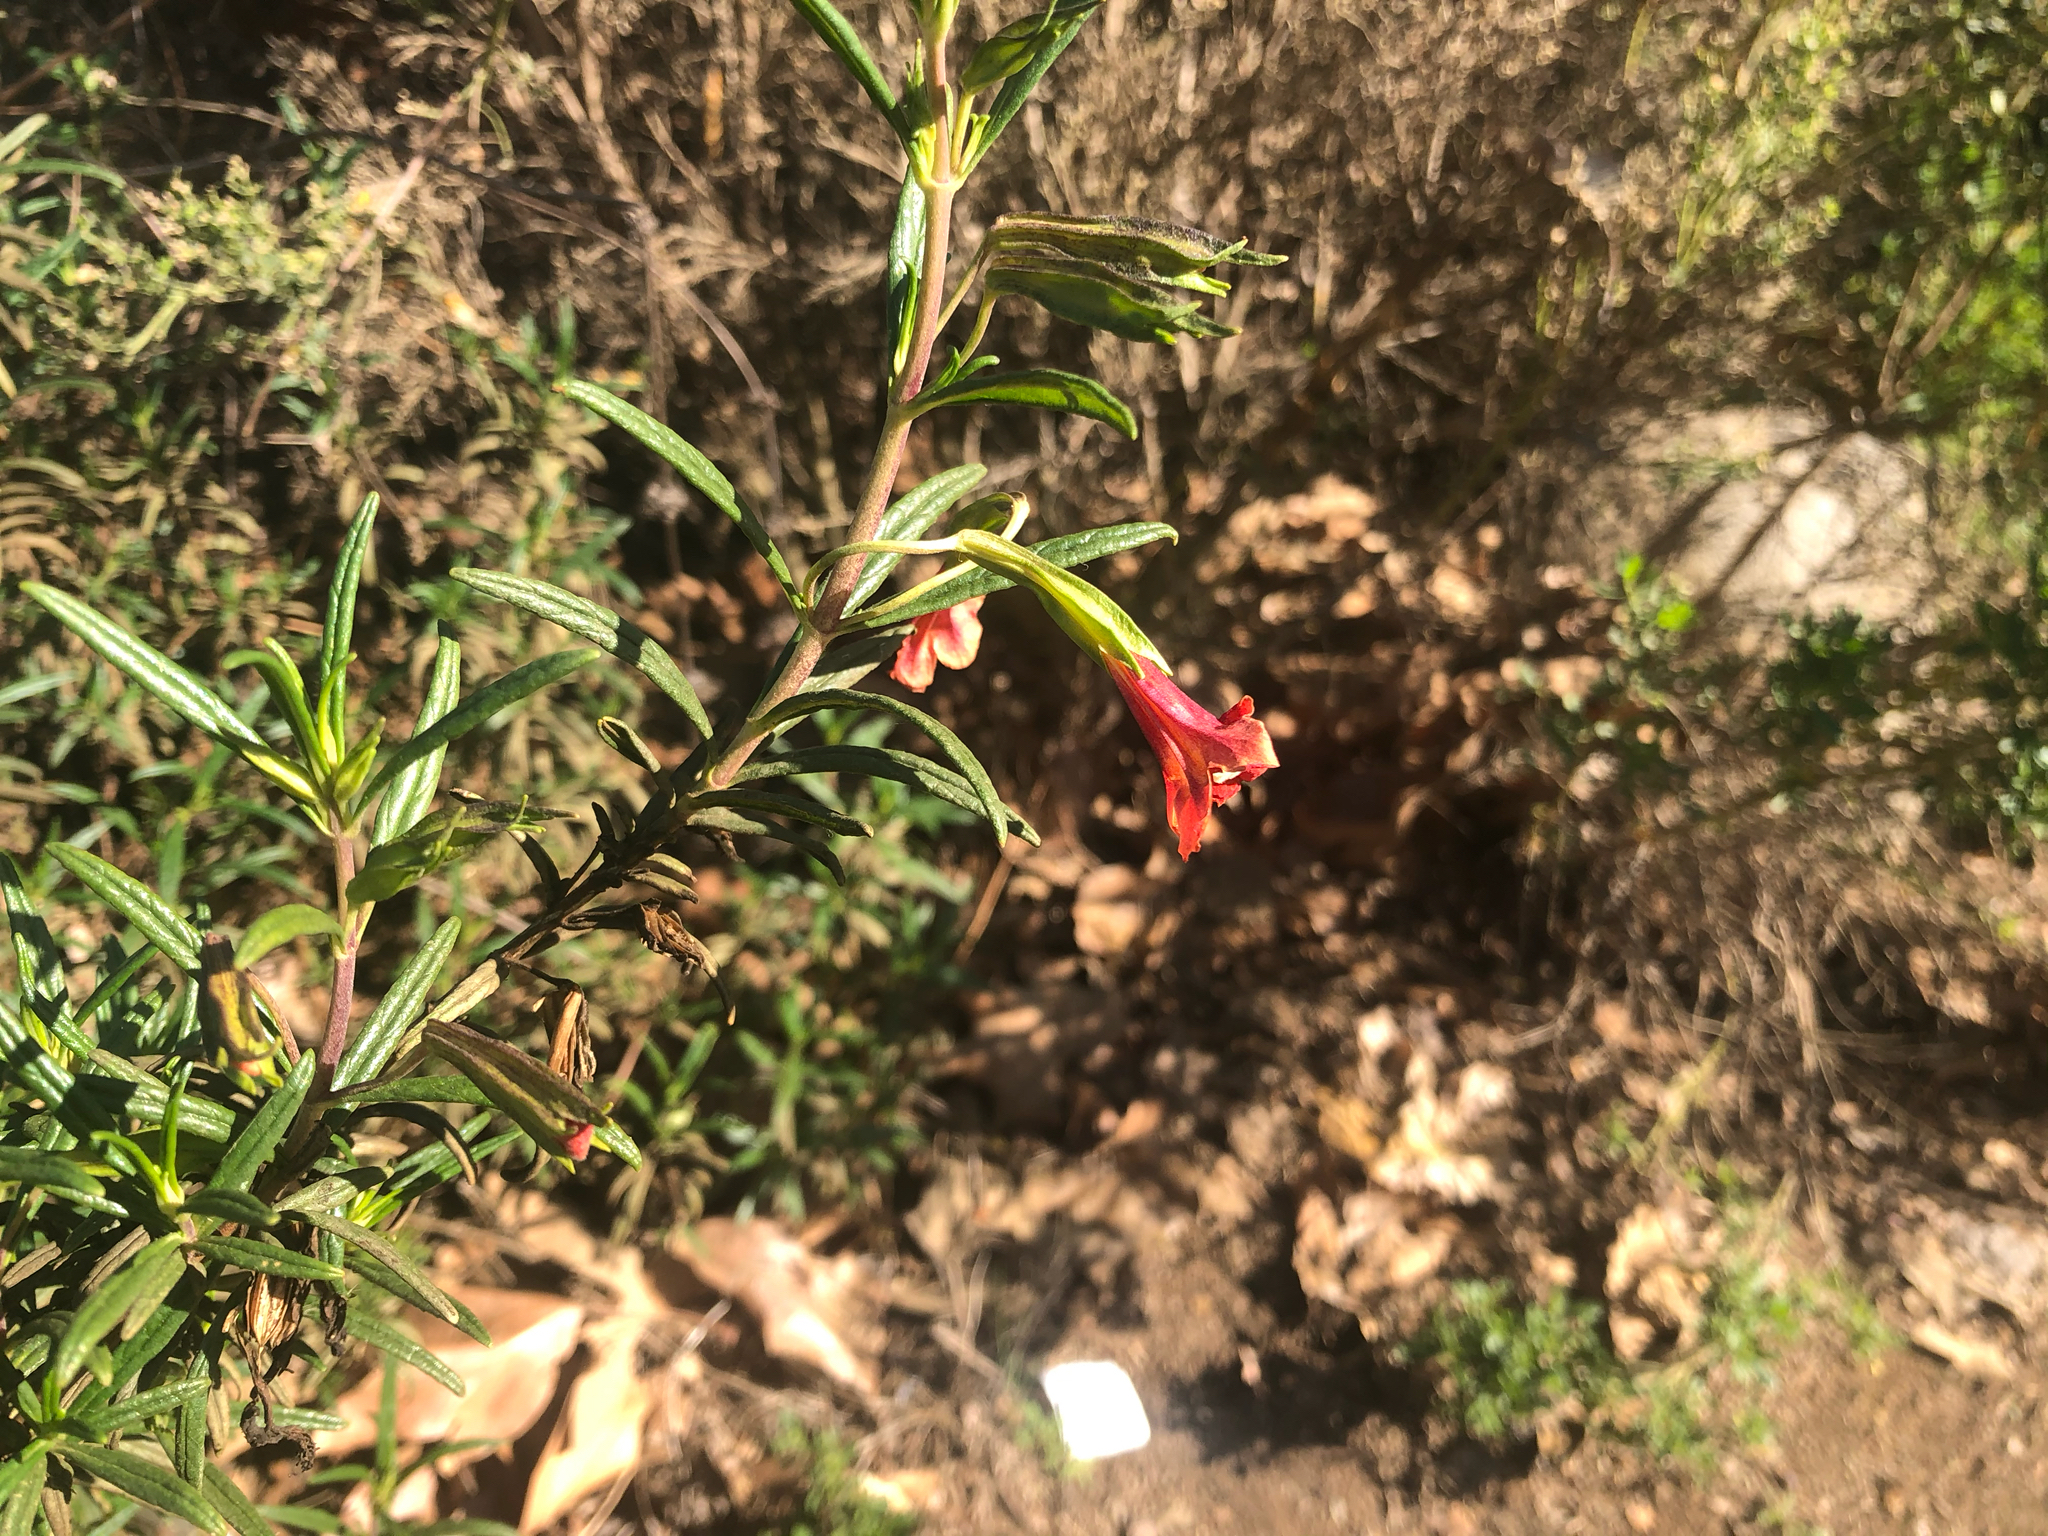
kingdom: Plantae
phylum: Tracheophyta
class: Magnoliopsida
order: Lamiales
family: Phrymaceae
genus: Diplacus
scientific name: Diplacus puniceus
